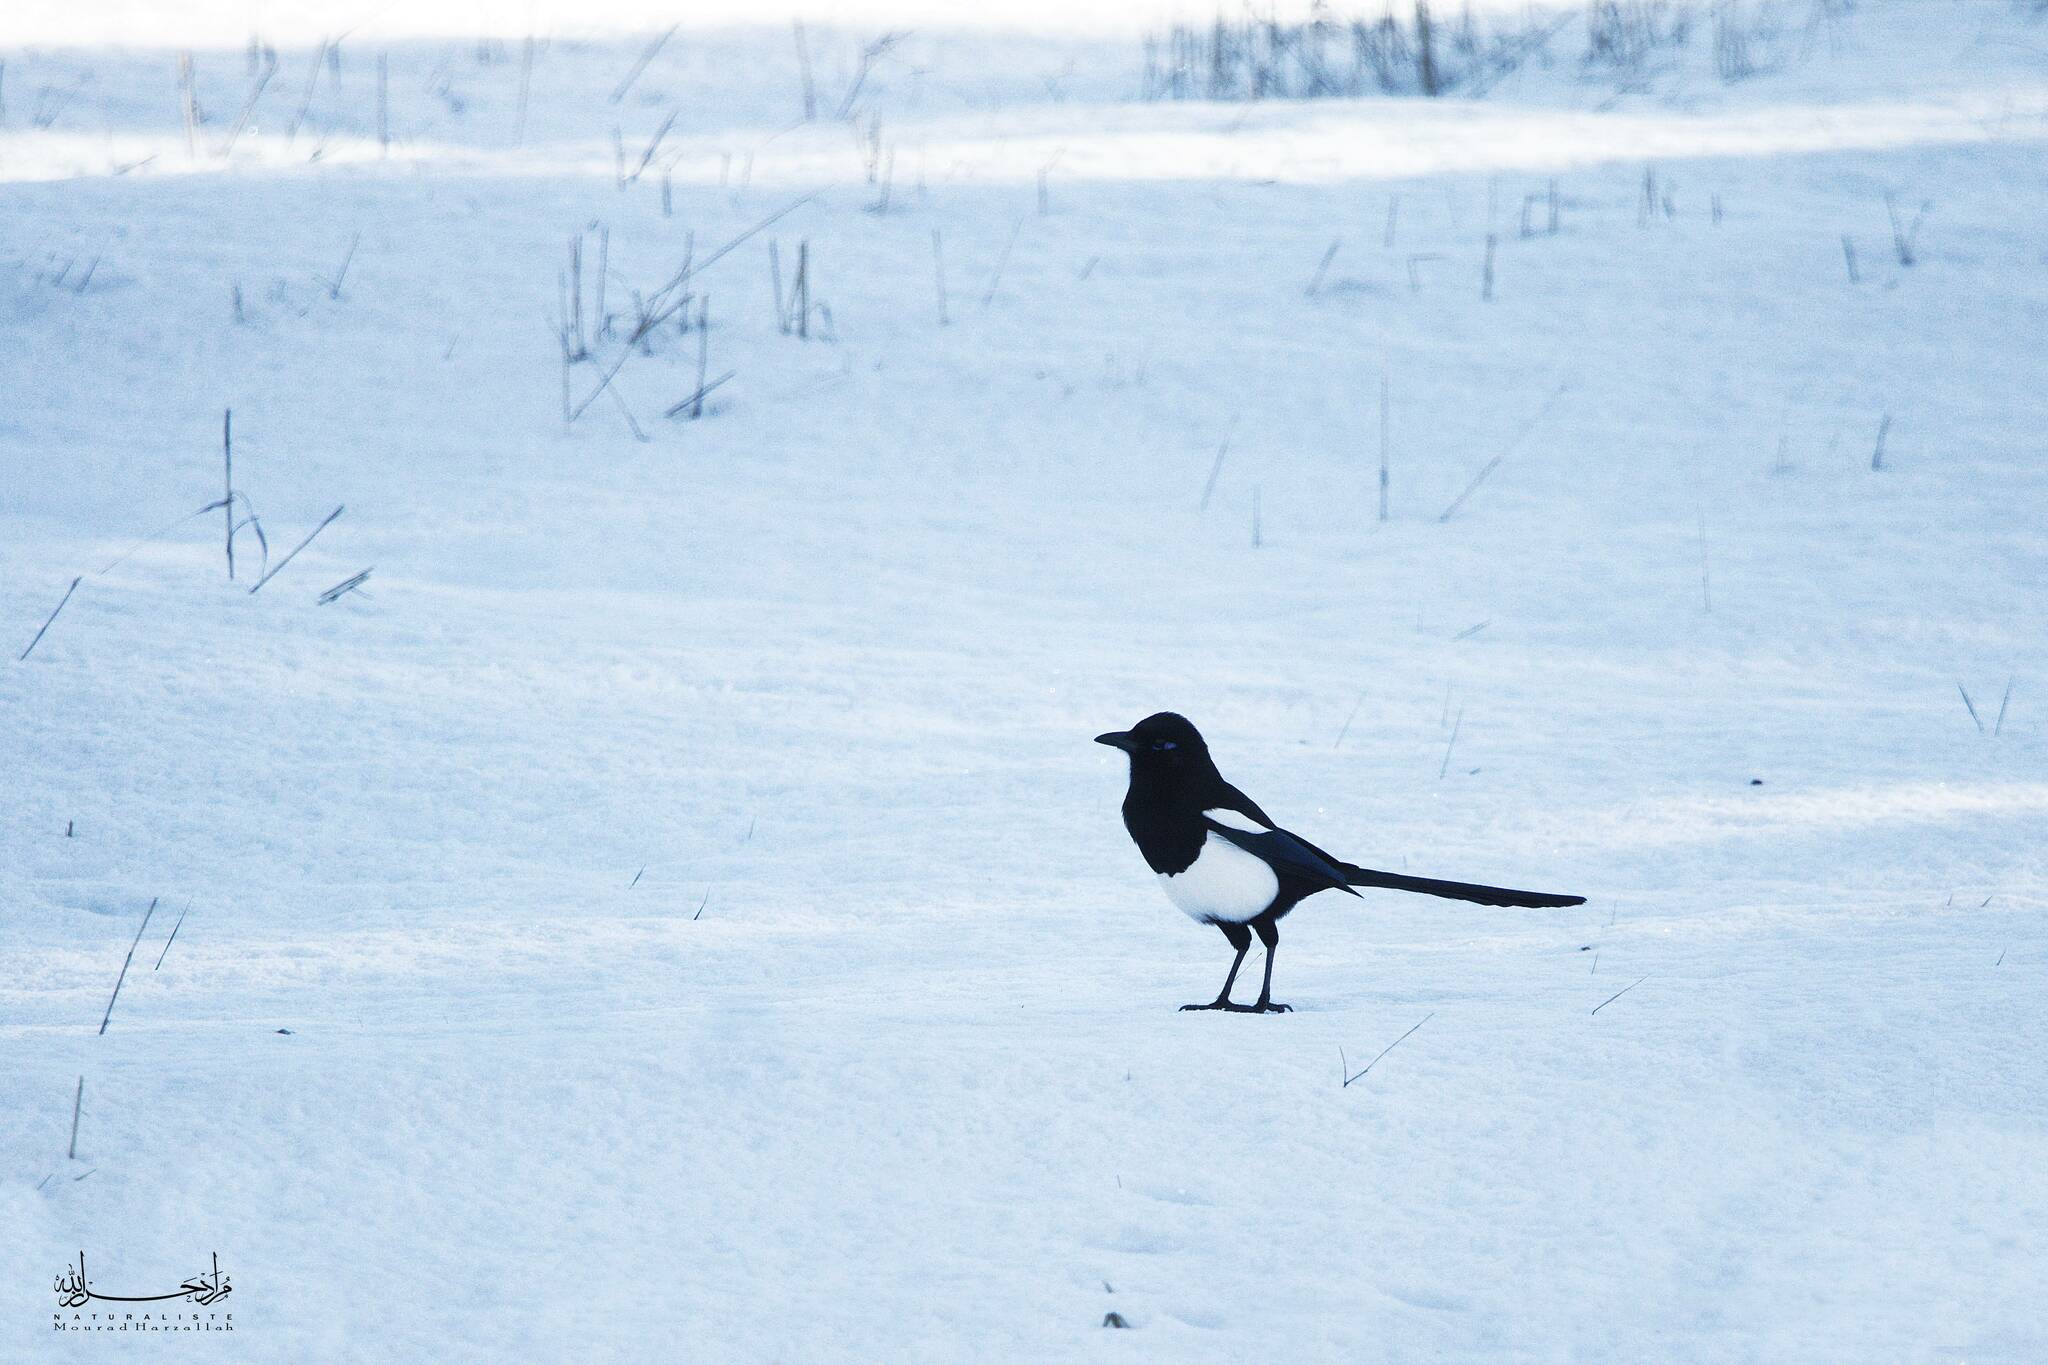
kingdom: Animalia
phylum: Chordata
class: Aves
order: Passeriformes
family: Corvidae
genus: Pica
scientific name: Pica mauritanica
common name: Maghreb magpie
